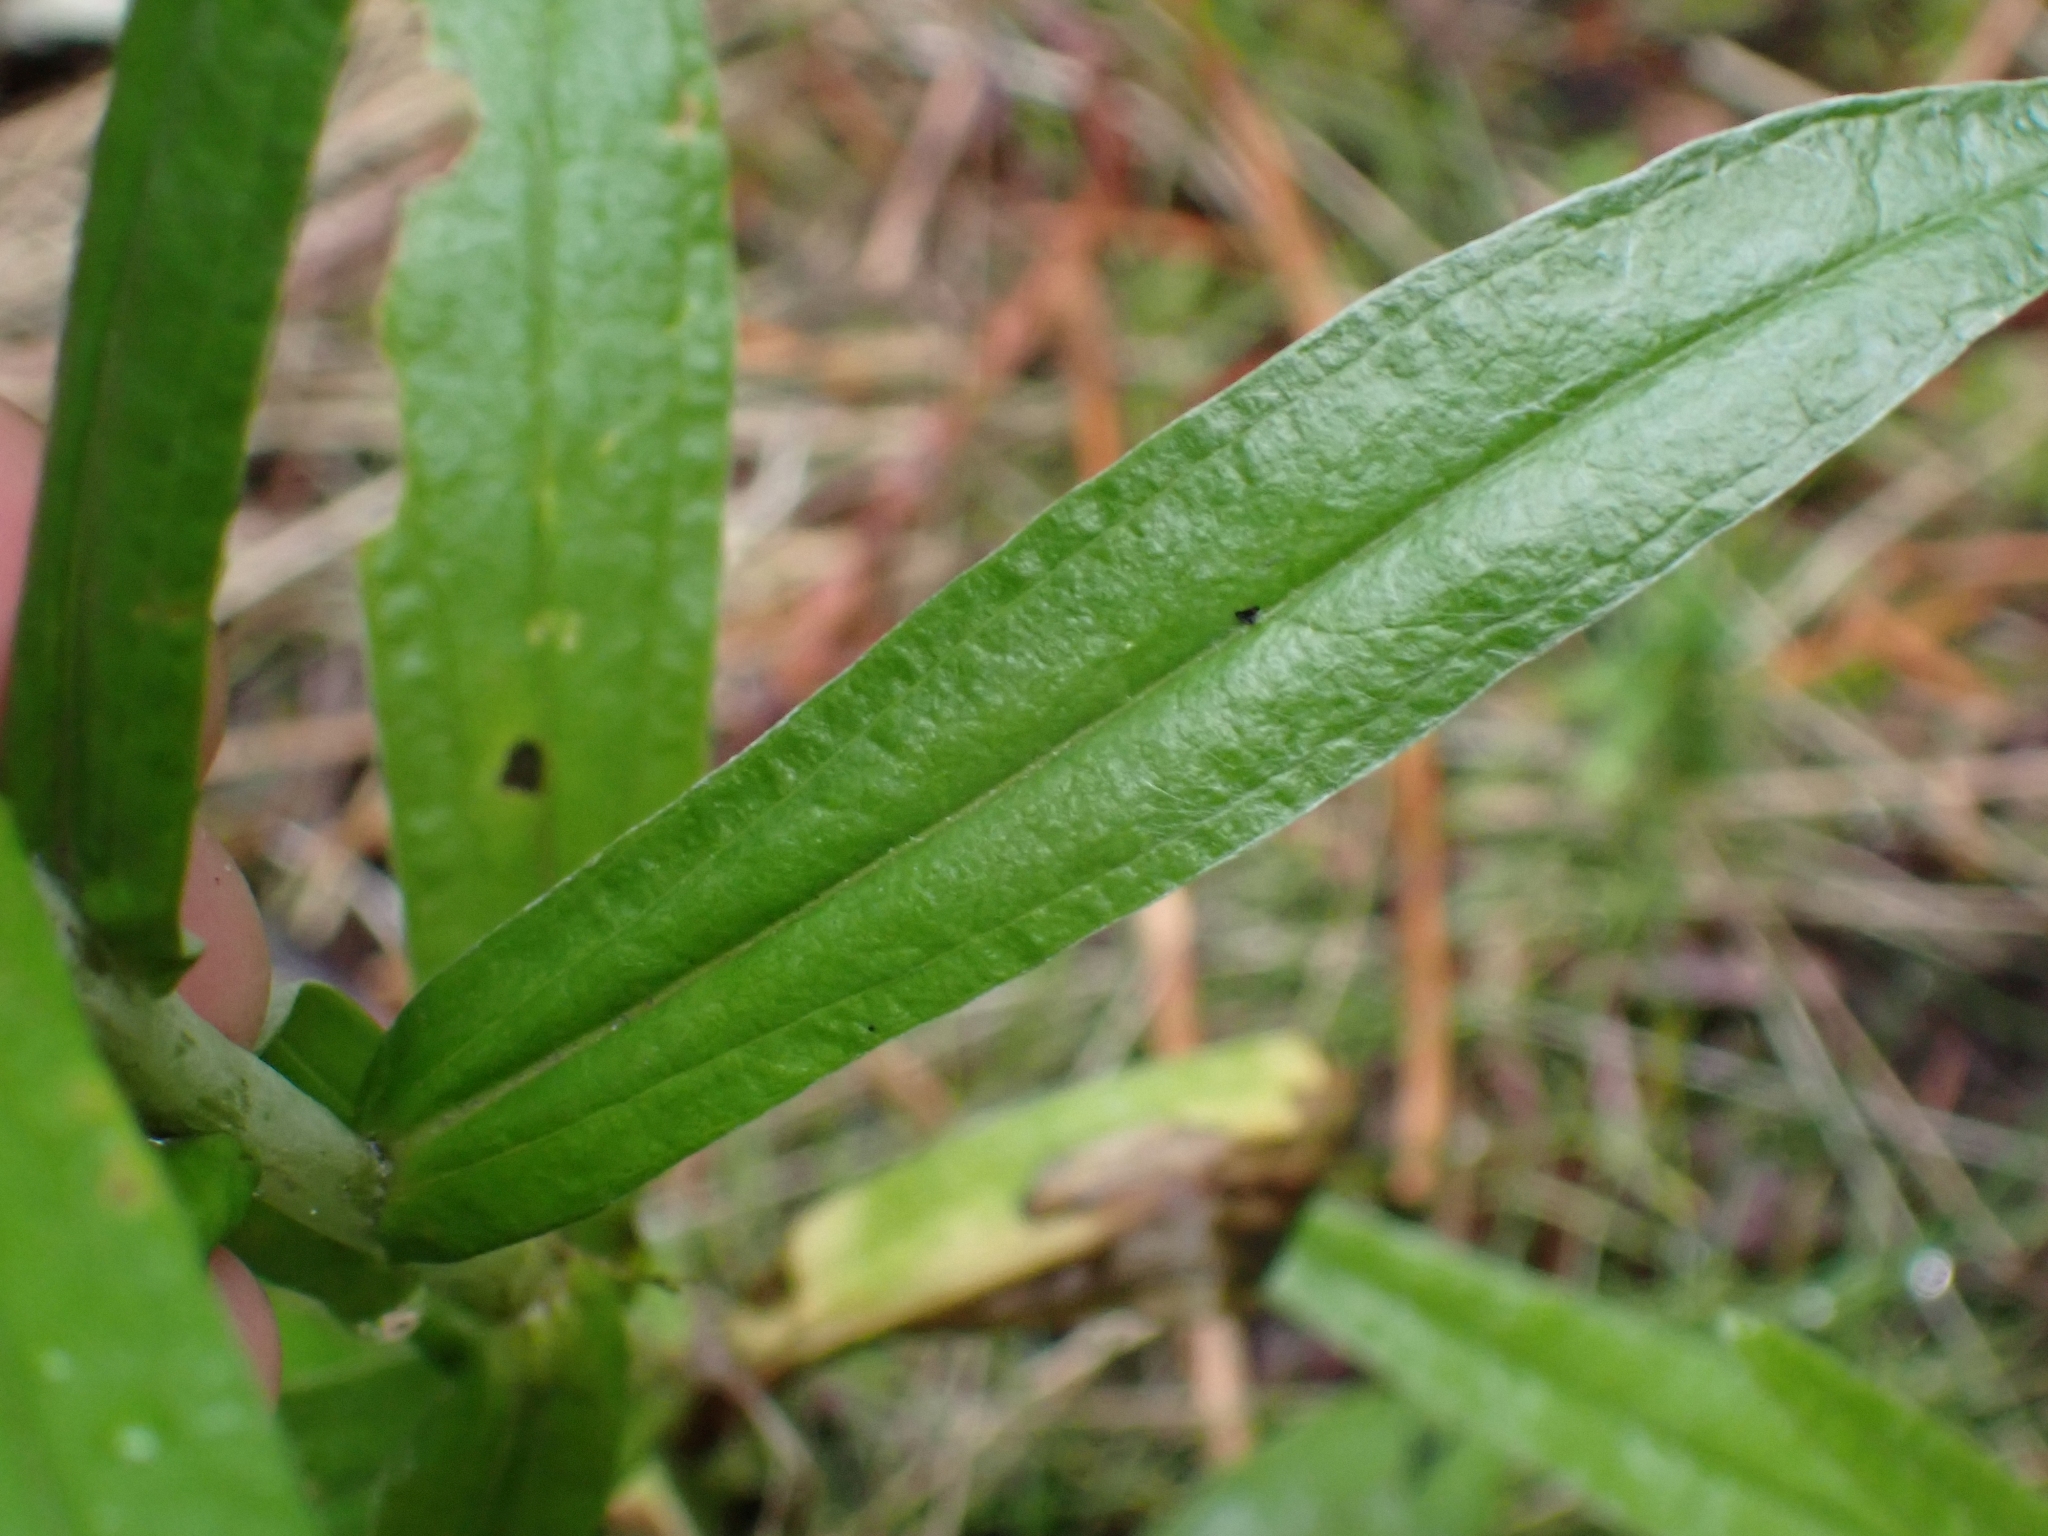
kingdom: Plantae
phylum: Tracheophyta
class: Magnoliopsida
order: Asterales
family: Asteraceae
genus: Anaphalis
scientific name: Anaphalis margaritacea
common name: Pearly everlasting
